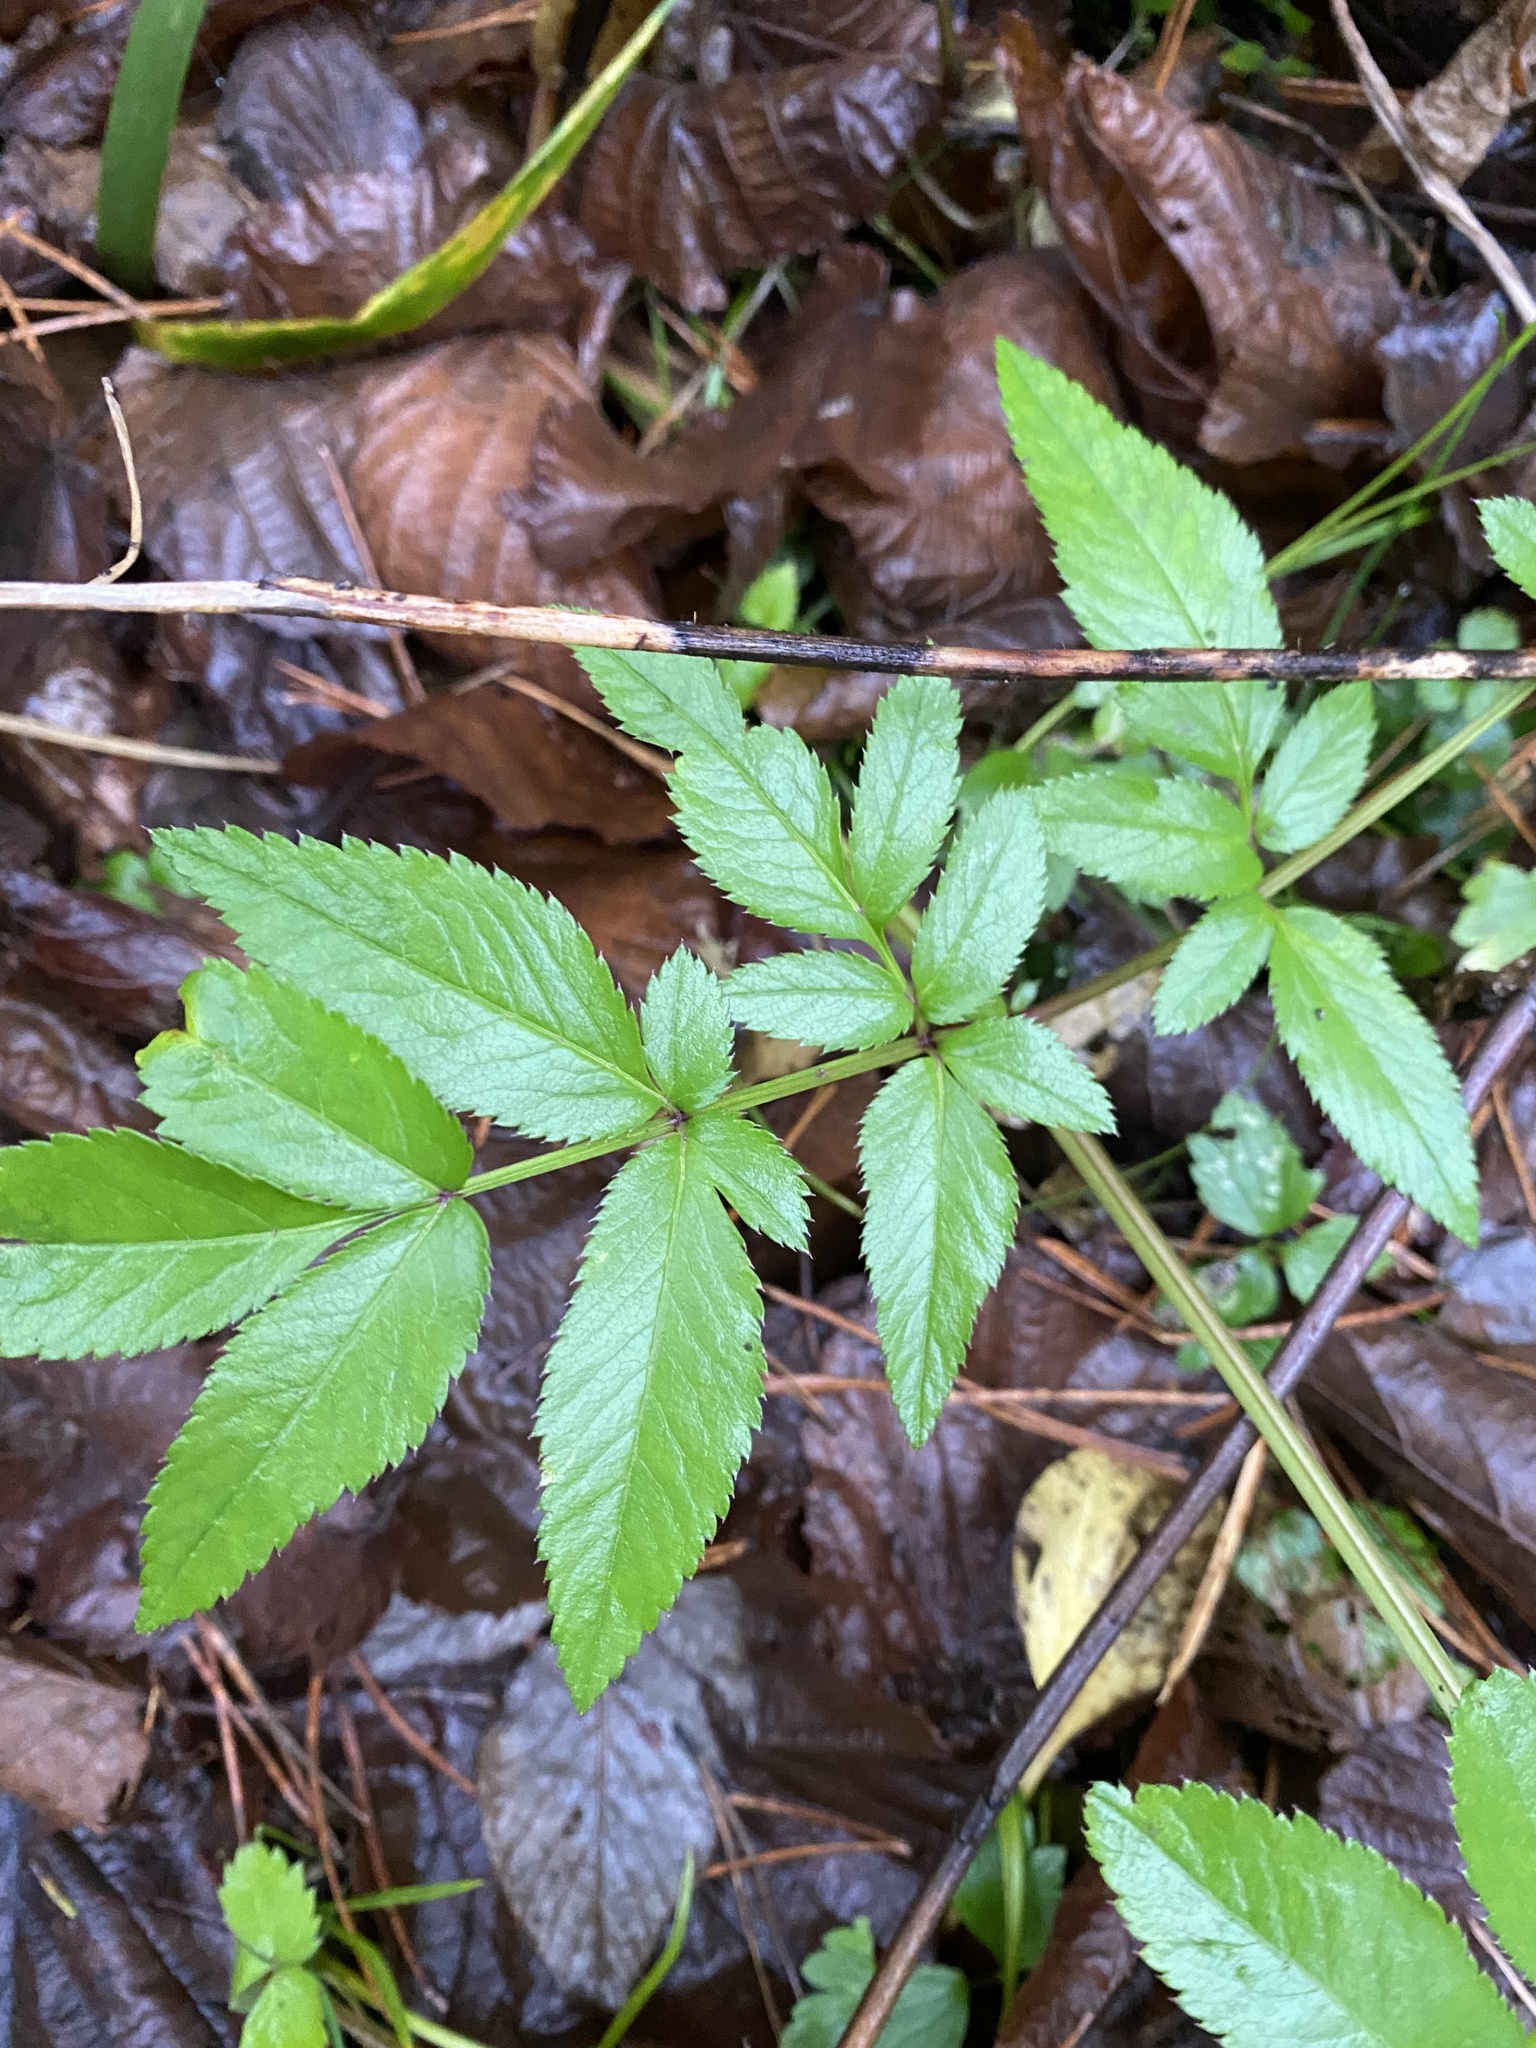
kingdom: Plantae
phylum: Tracheophyta
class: Magnoliopsida
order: Apiales
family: Apiaceae
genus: Angelica
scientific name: Angelica sylvestris
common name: Wild angelica
